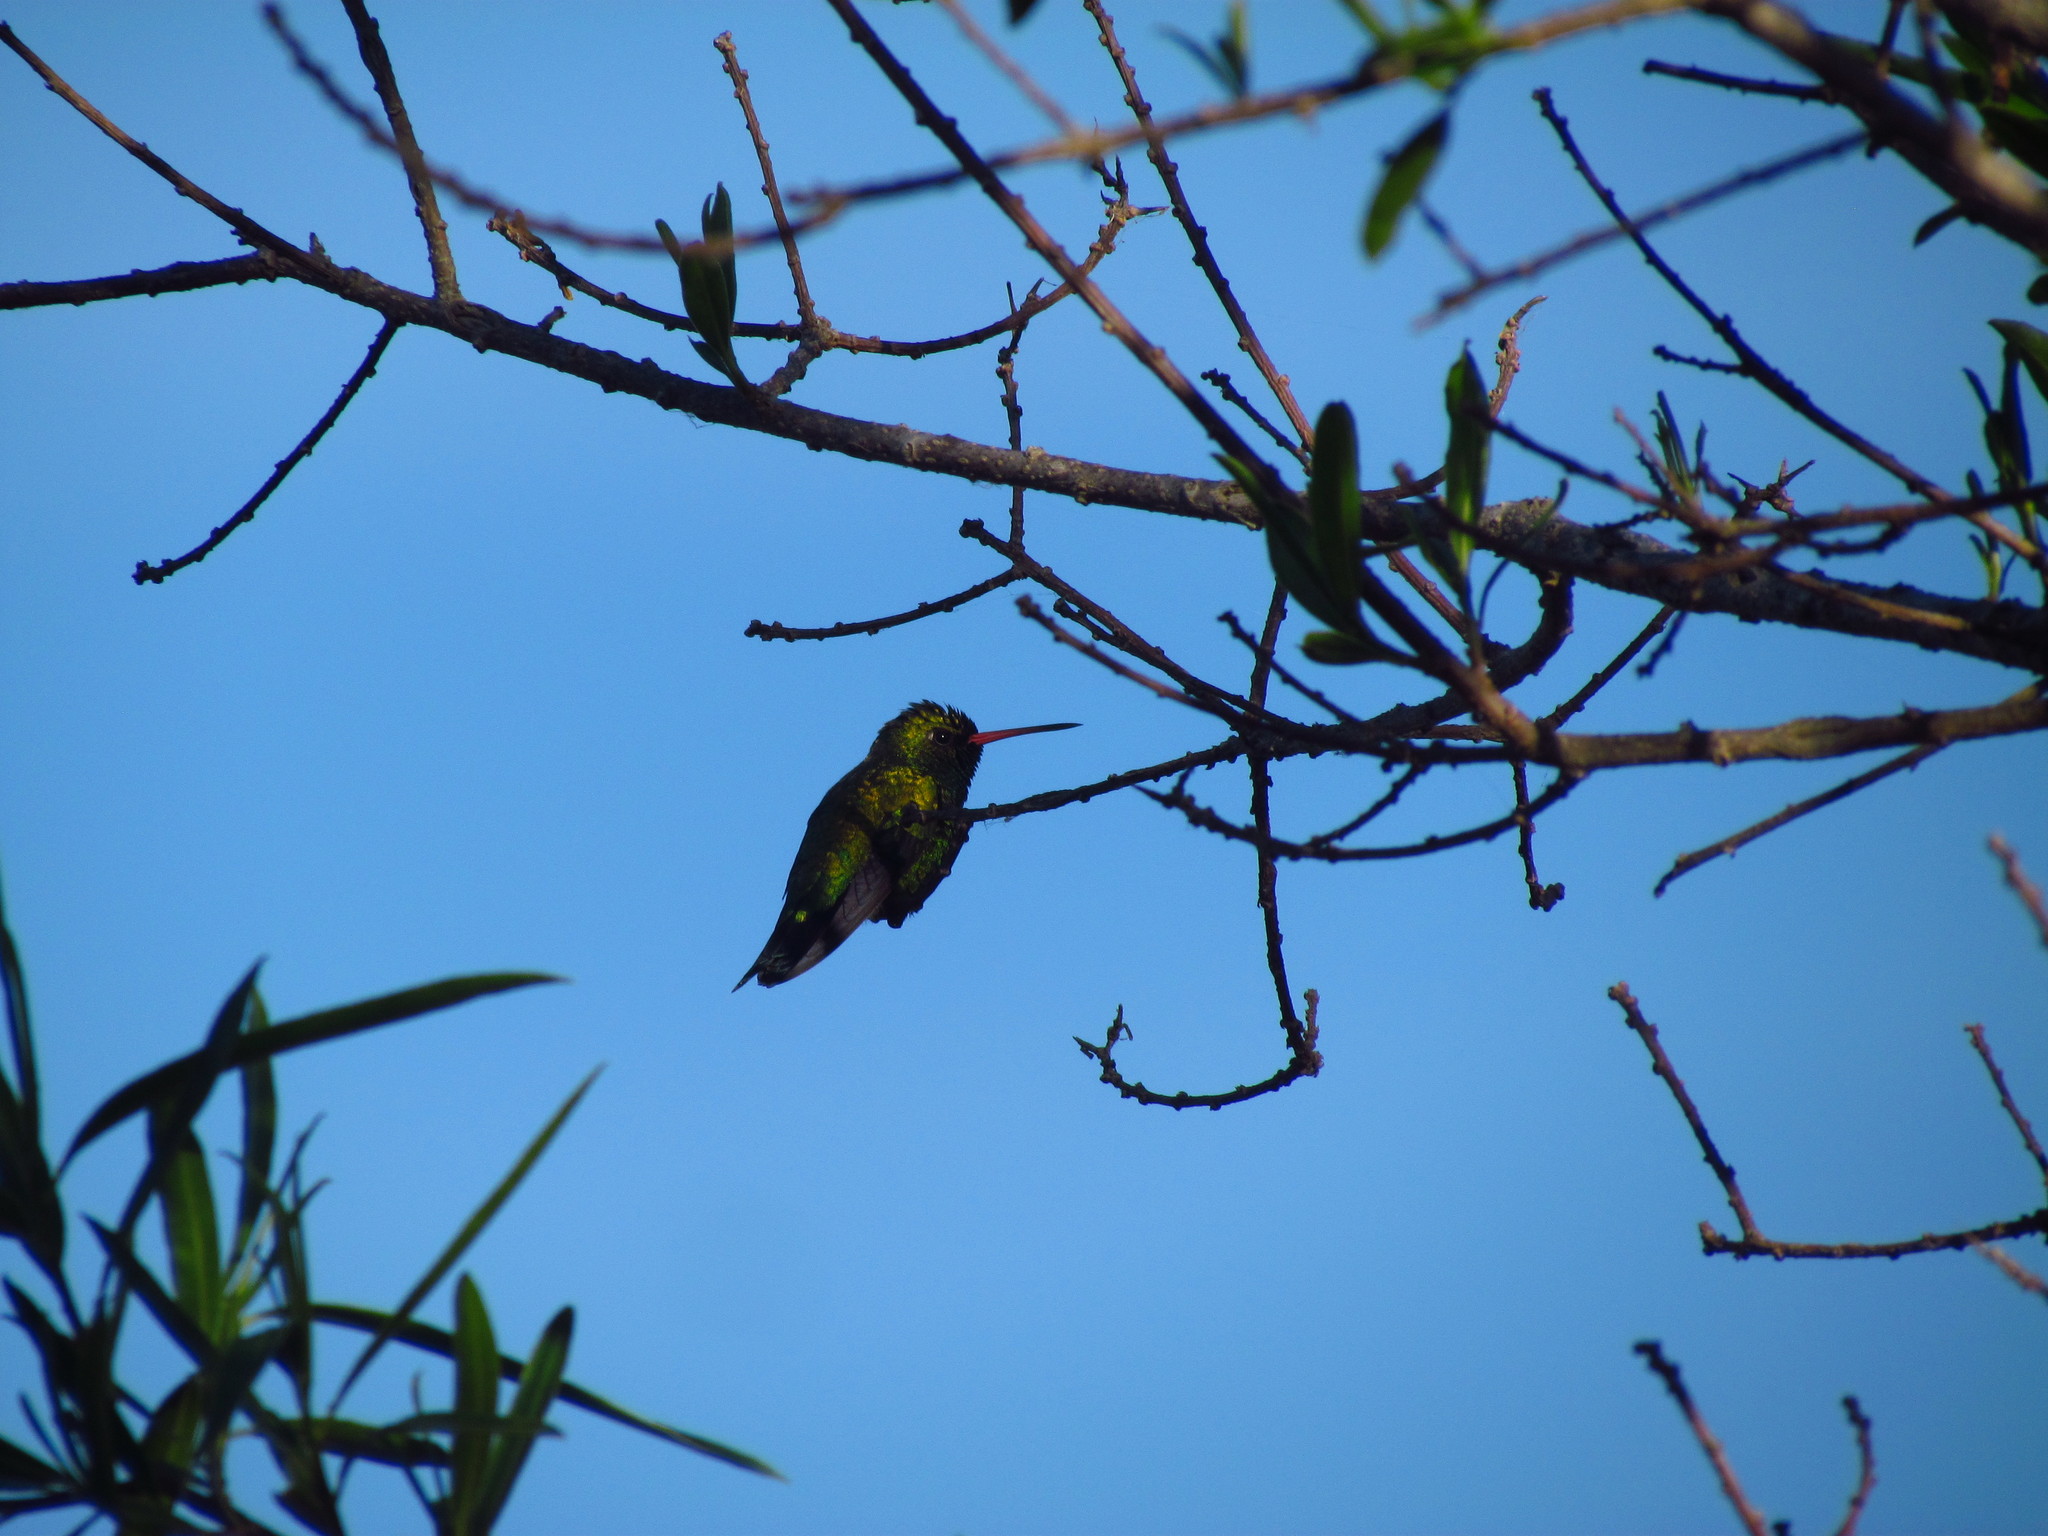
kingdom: Animalia
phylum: Chordata
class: Aves
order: Apodiformes
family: Trochilidae
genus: Chlorostilbon
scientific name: Chlorostilbon lucidus
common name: Glittering-bellied emerald
